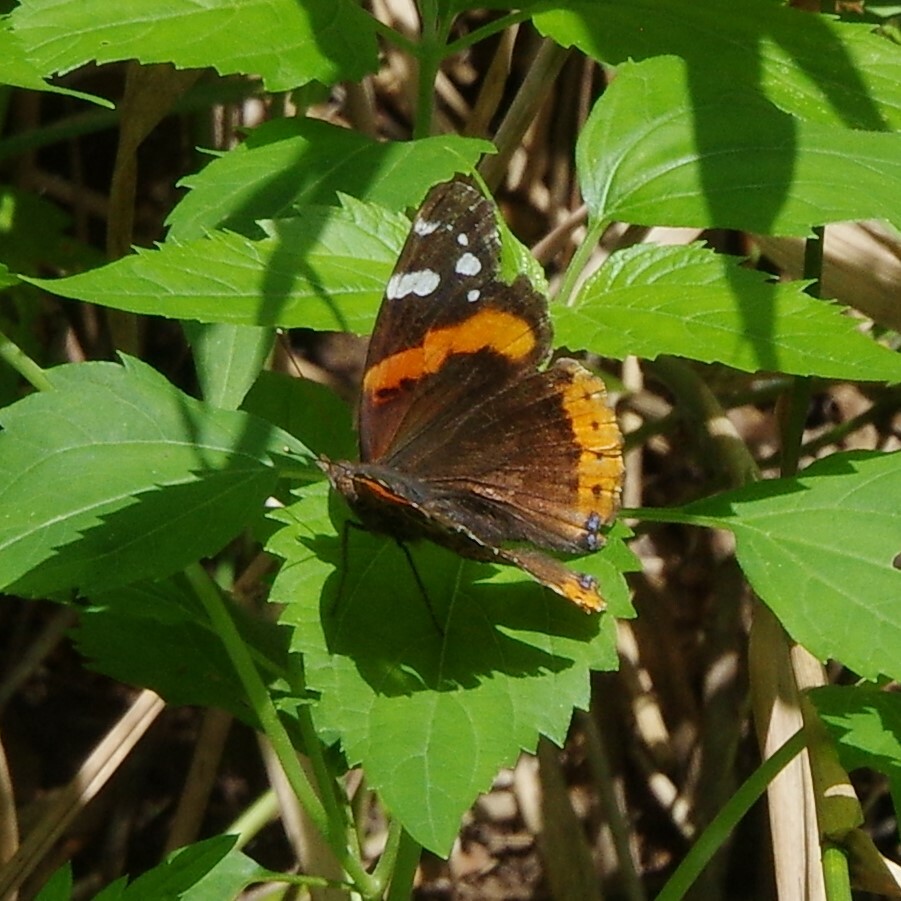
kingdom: Animalia
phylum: Arthropoda
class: Insecta
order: Lepidoptera
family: Nymphalidae
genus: Vanessa
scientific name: Vanessa atalanta
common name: Red admiral
